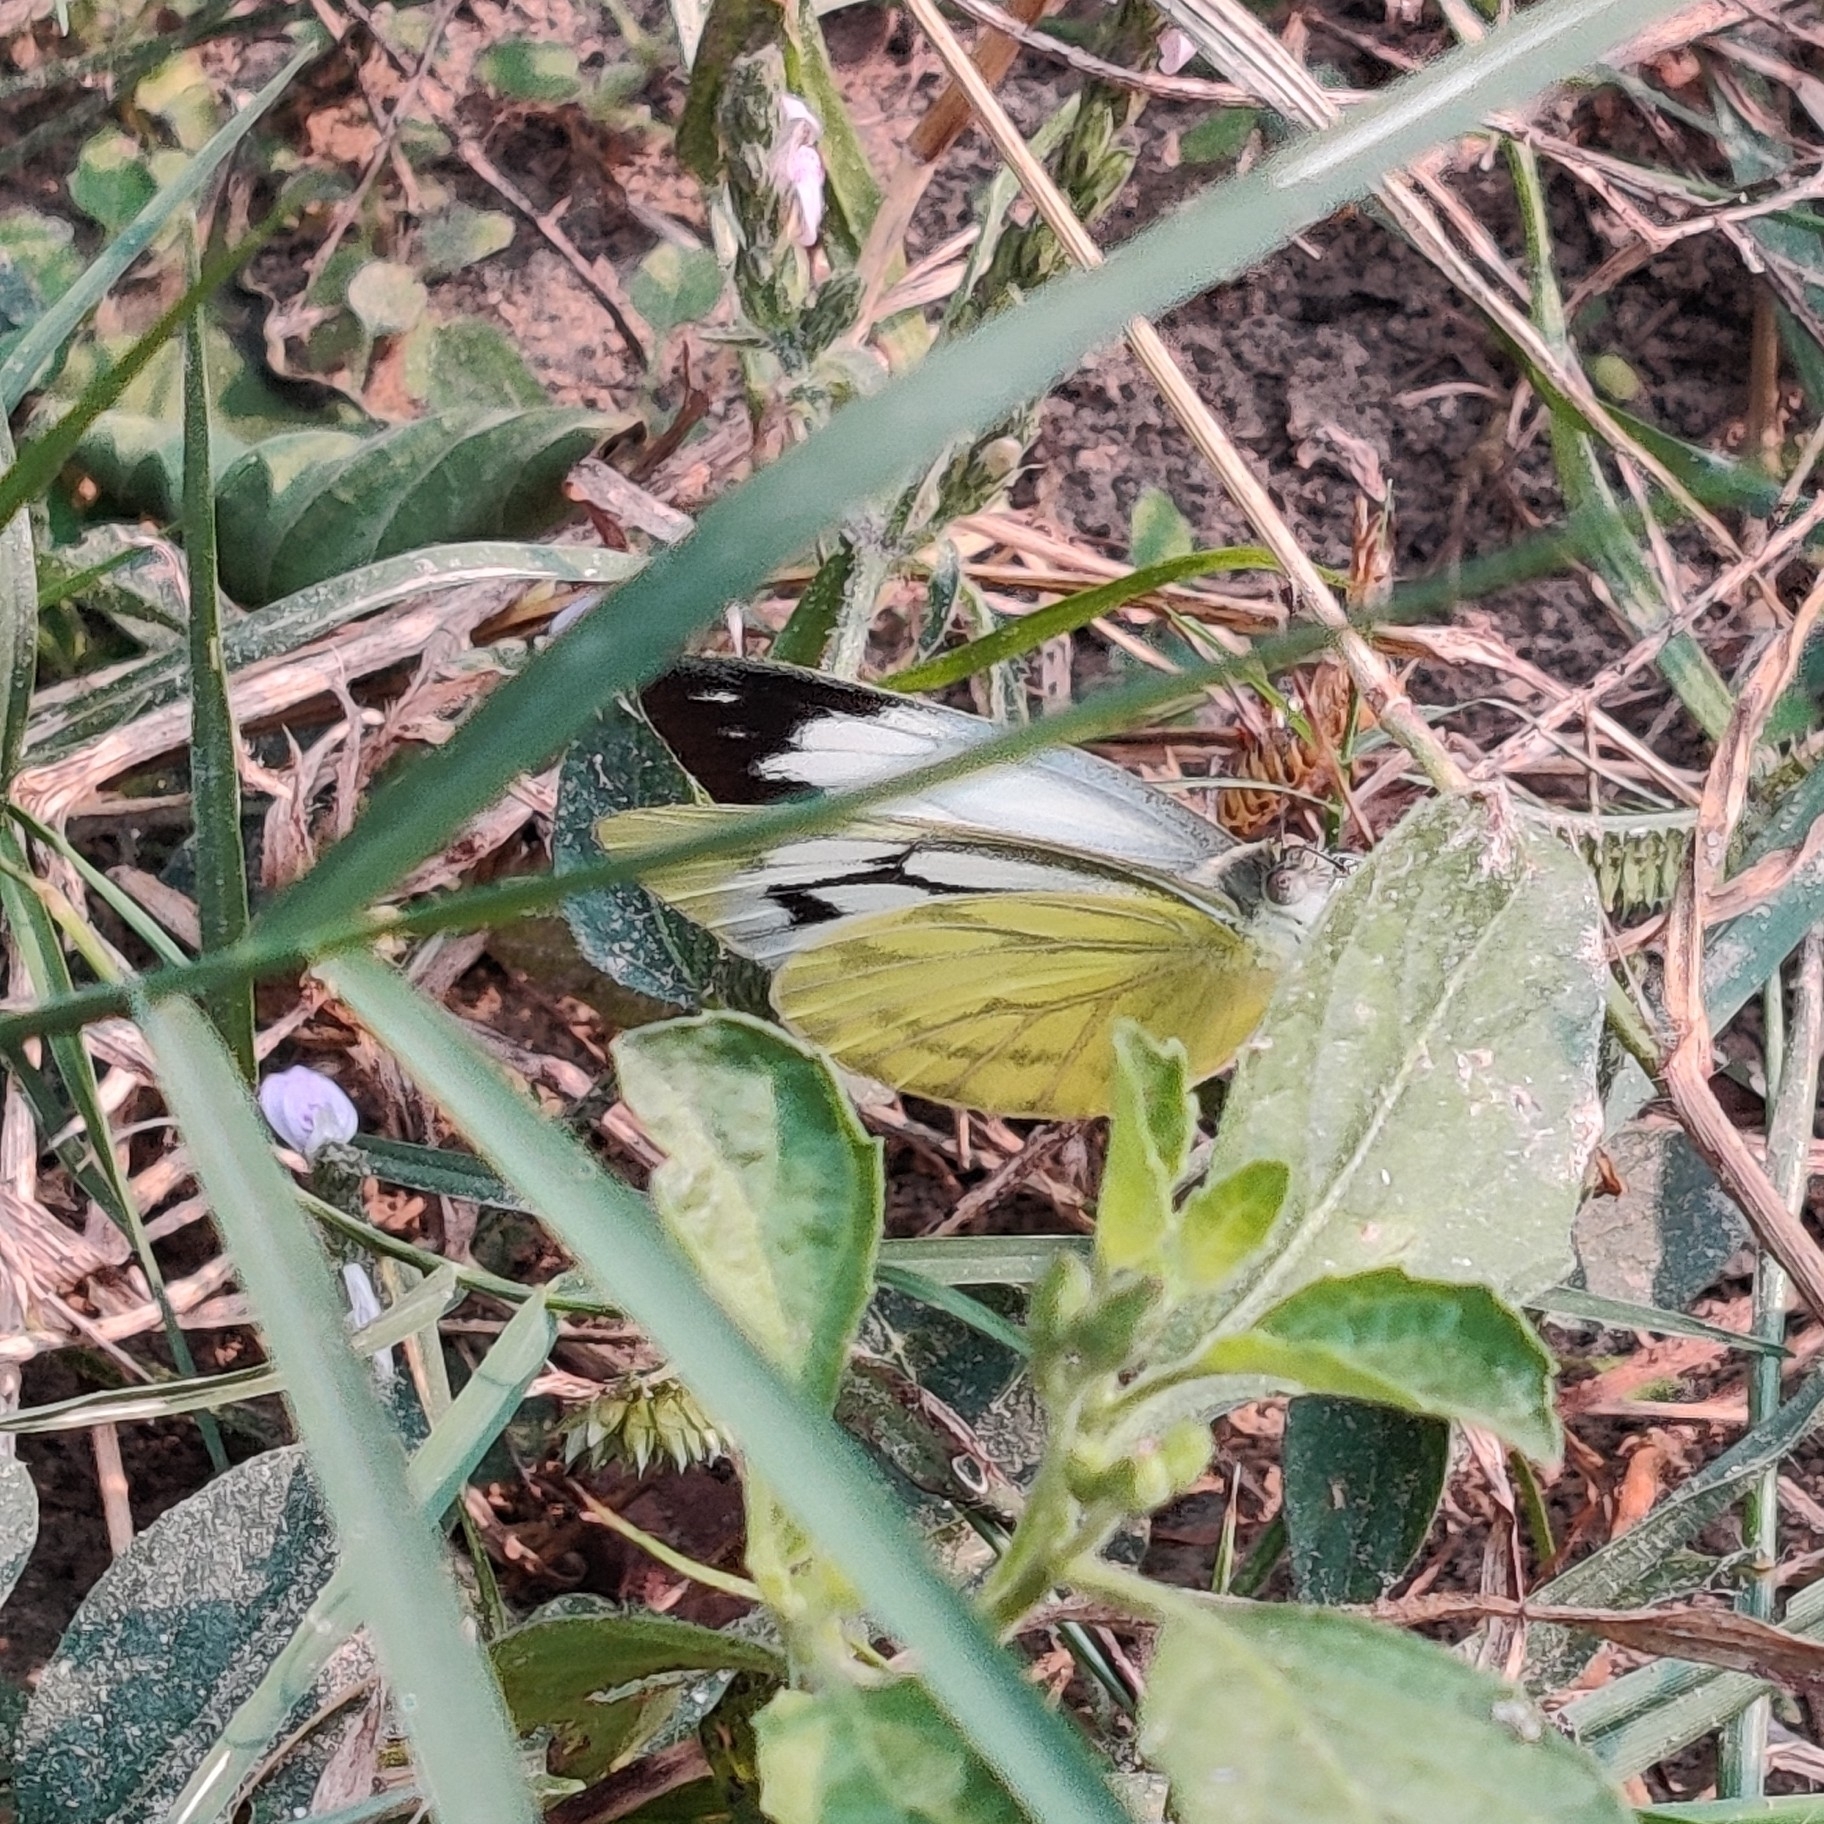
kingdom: Animalia
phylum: Arthropoda
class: Insecta
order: Lepidoptera
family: Pieridae
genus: Cepora
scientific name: Cepora nerissa
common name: Common gull
